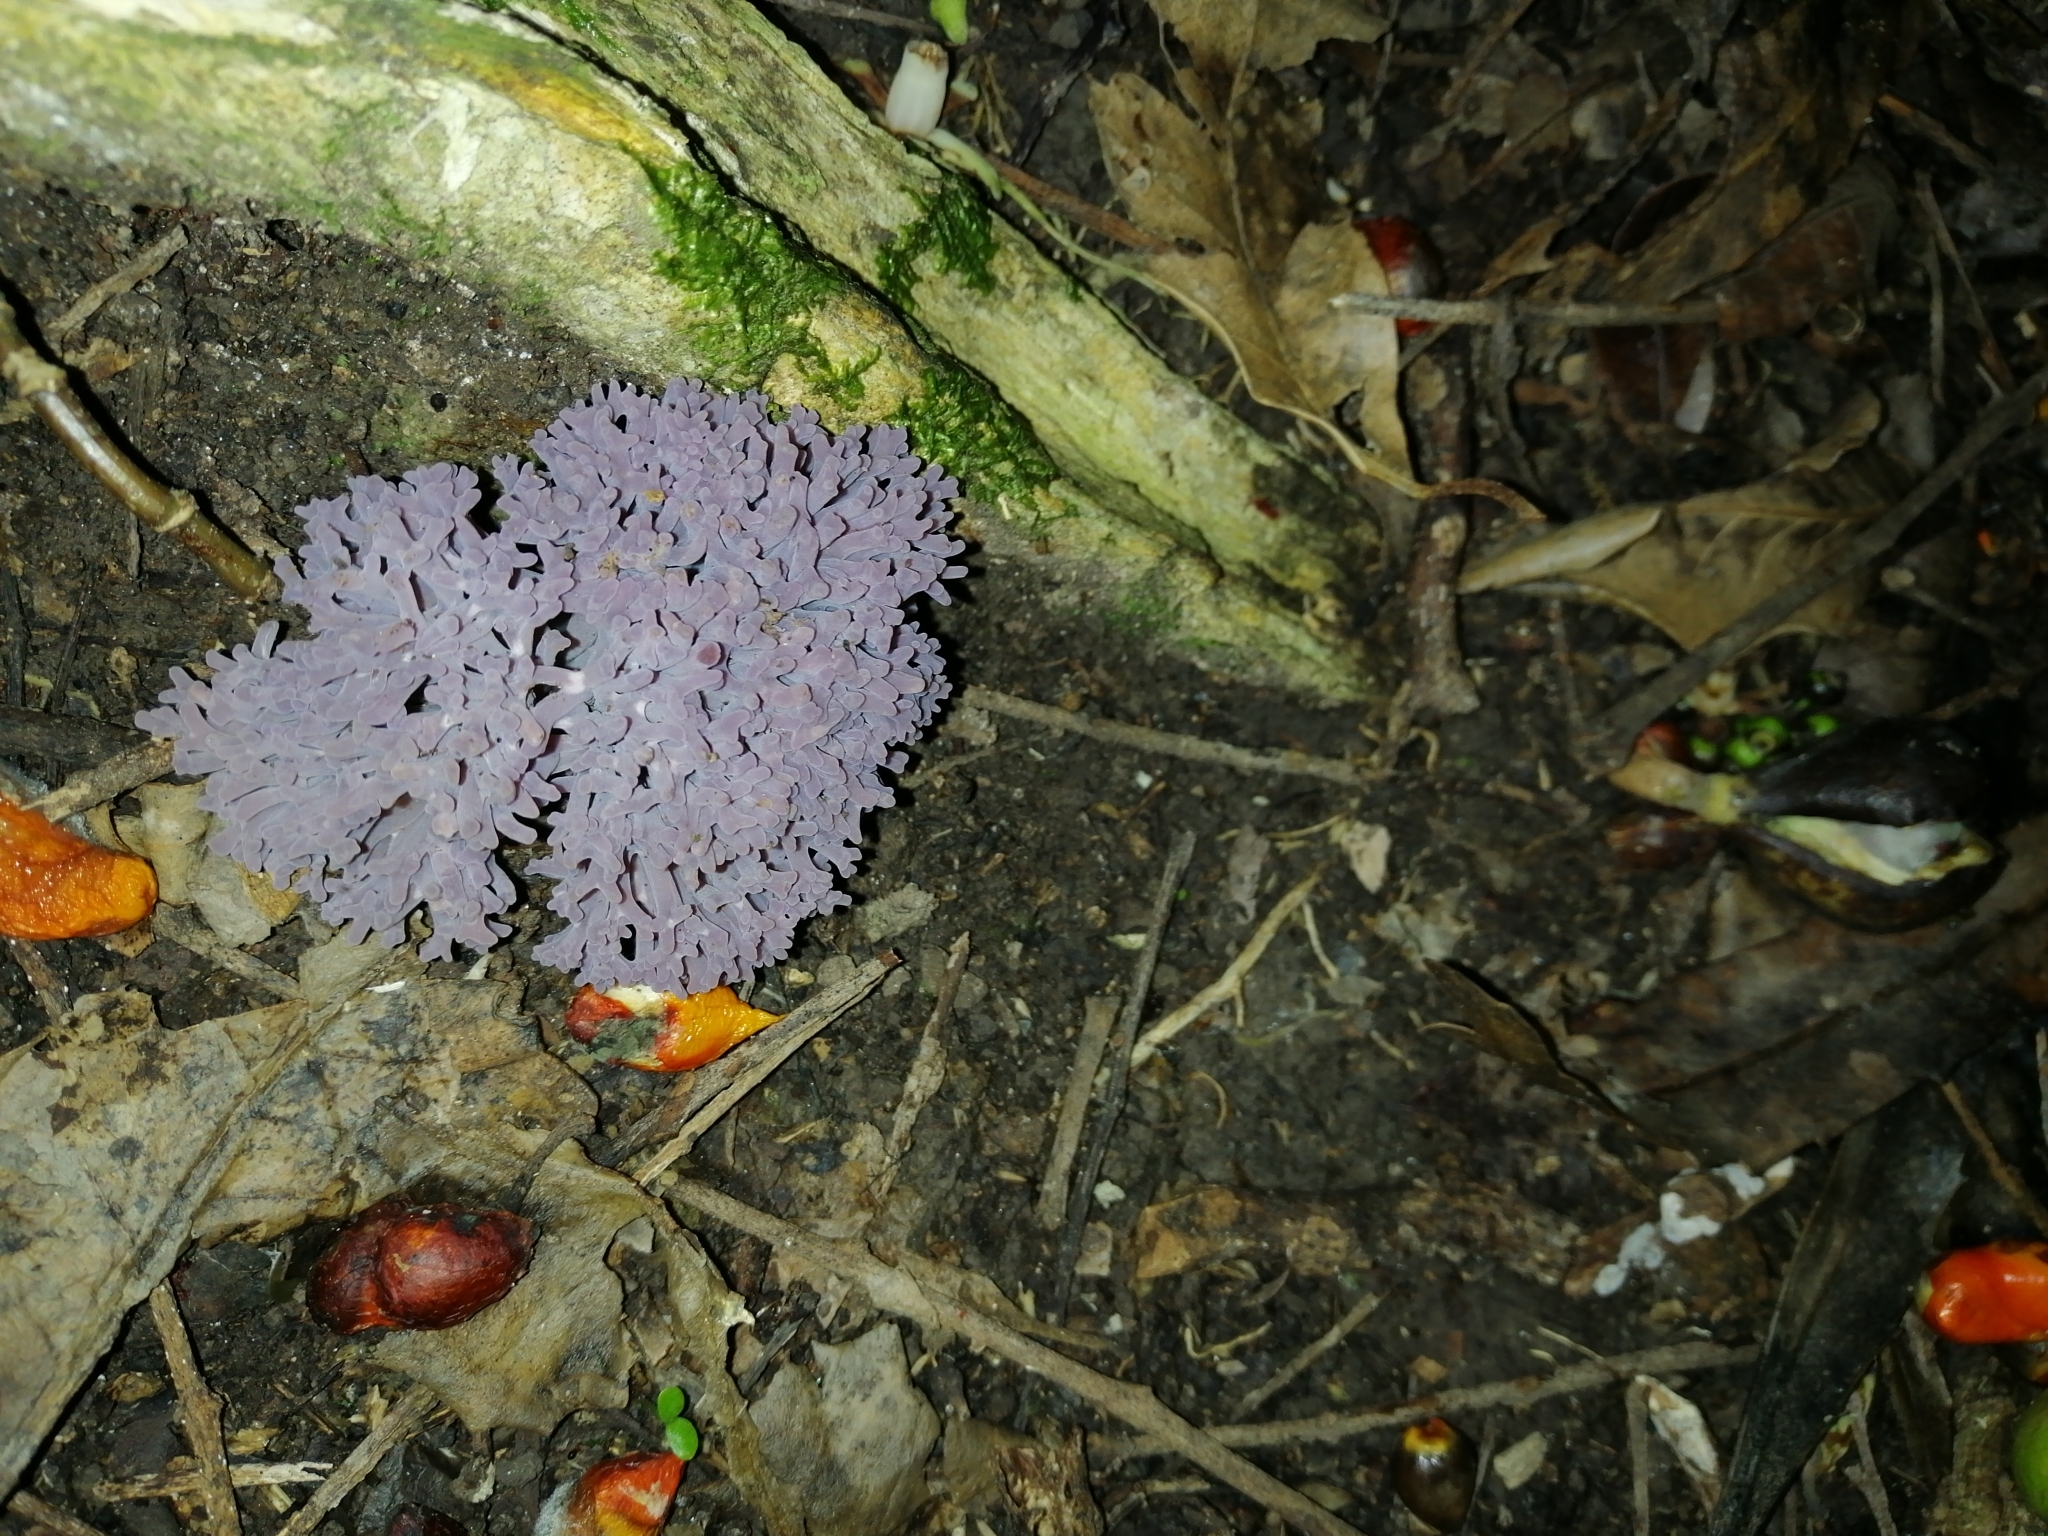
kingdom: Fungi
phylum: Basidiomycota
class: Agaricomycetes
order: Agaricales
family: Clavariaceae
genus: Clavaria
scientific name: Clavaria zollingeri
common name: Violet coral
